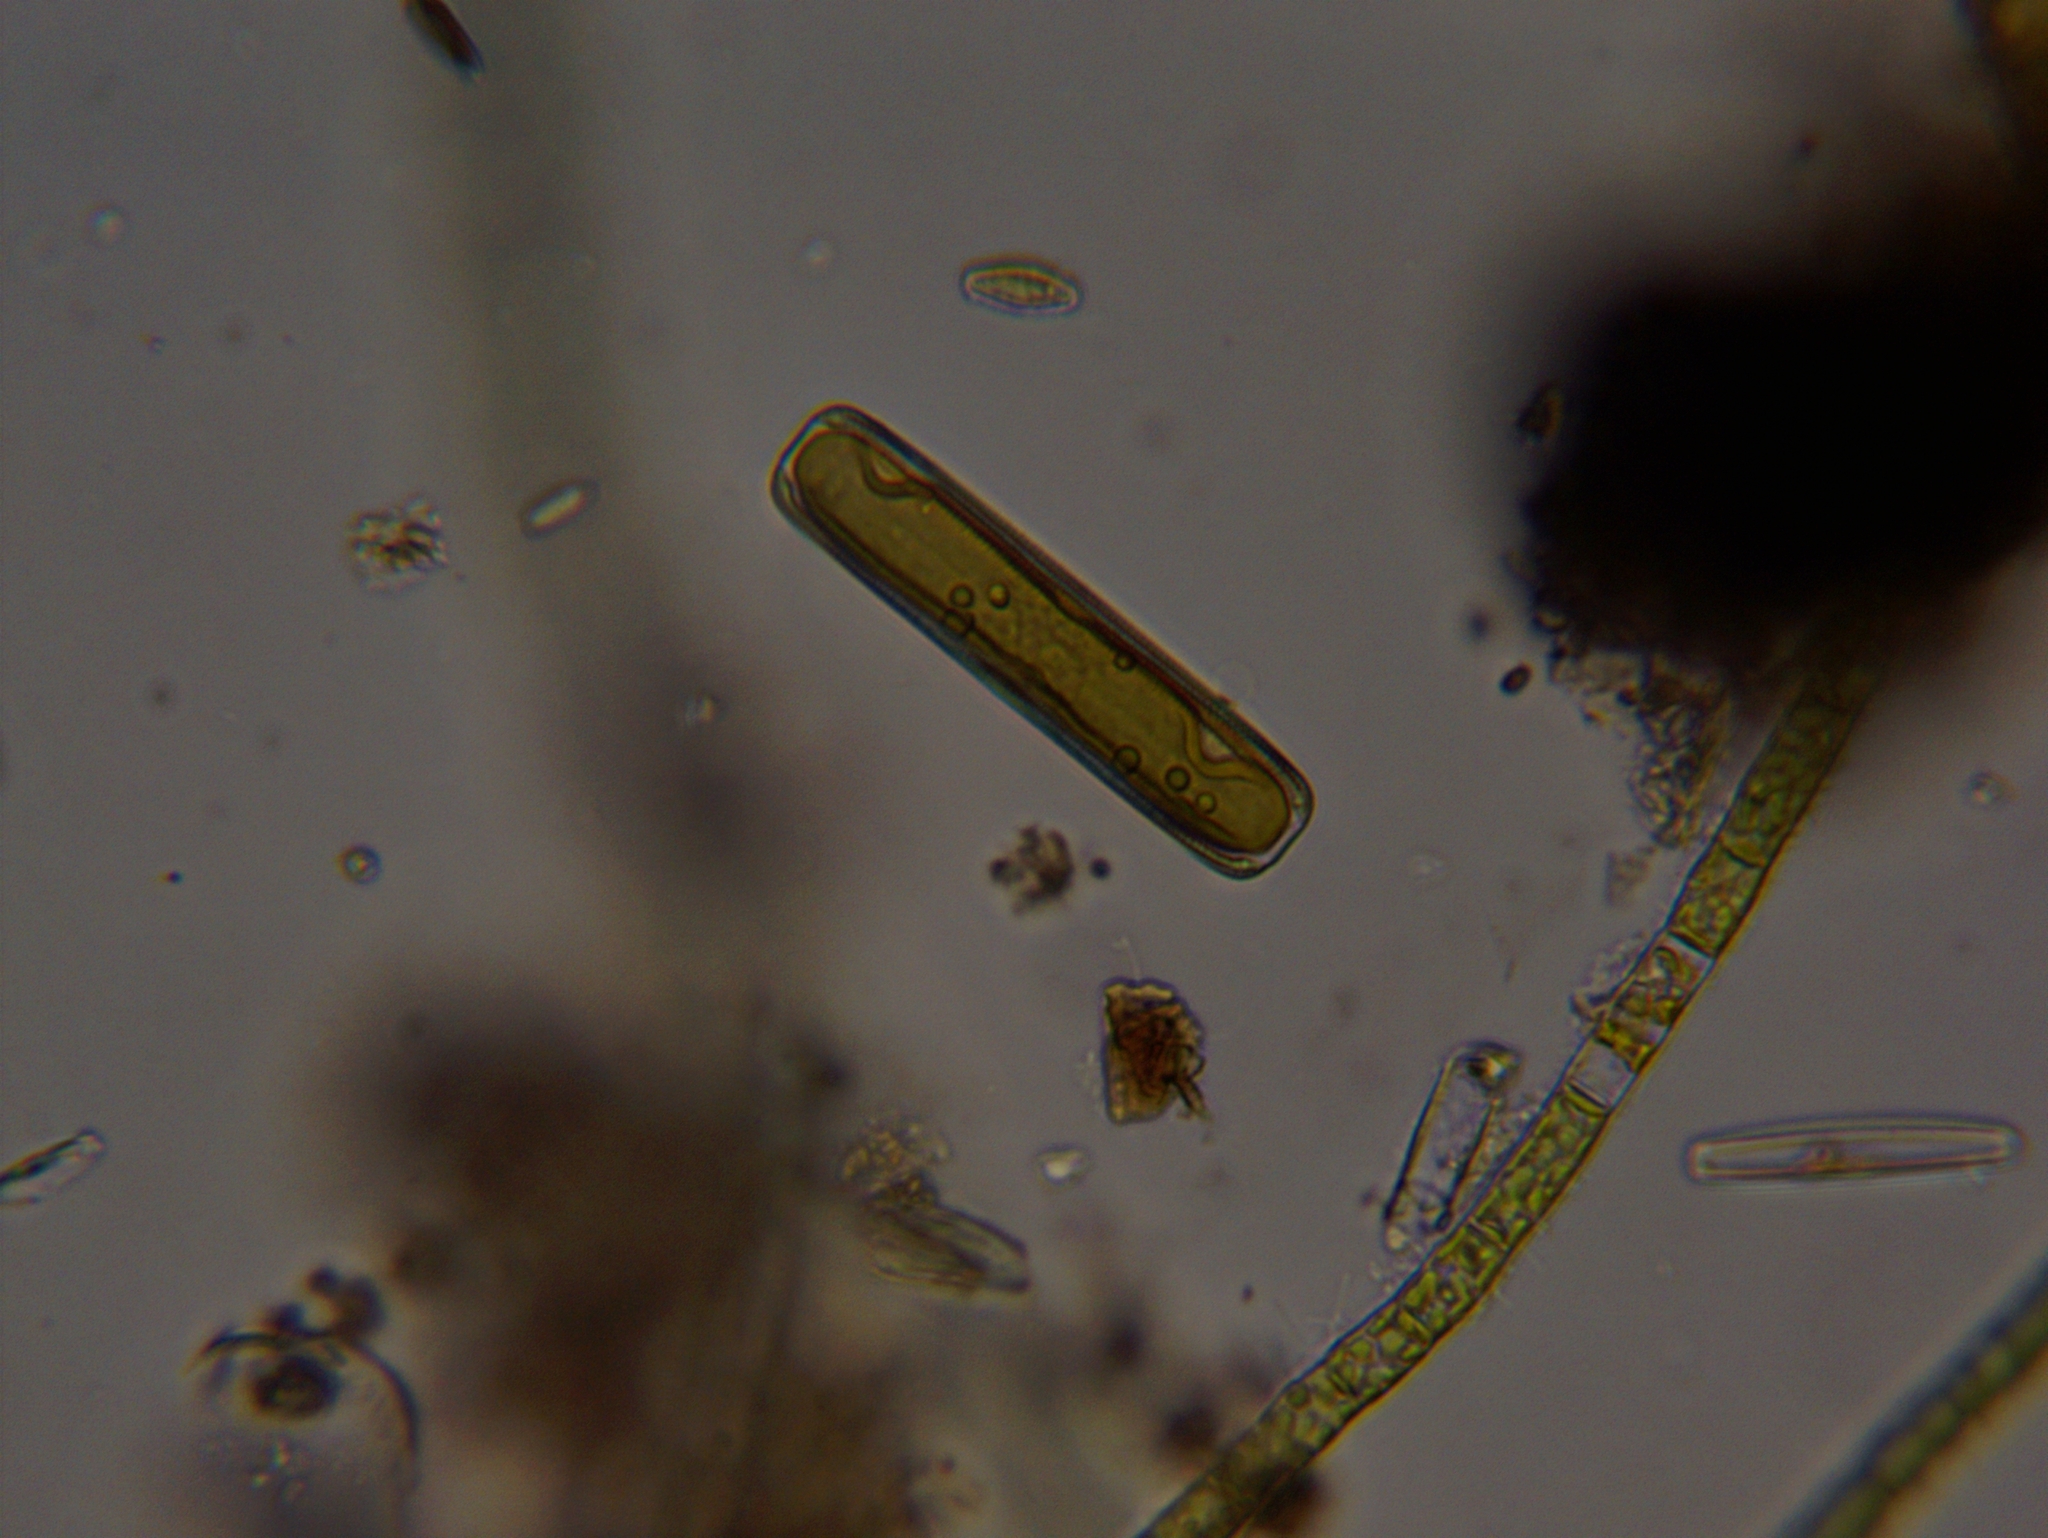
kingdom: Chromista
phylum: Ochrophyta
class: Bacillariophyceae
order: Naviculales
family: Pinnulariaceae
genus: Pinnularia
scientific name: Pinnularia
